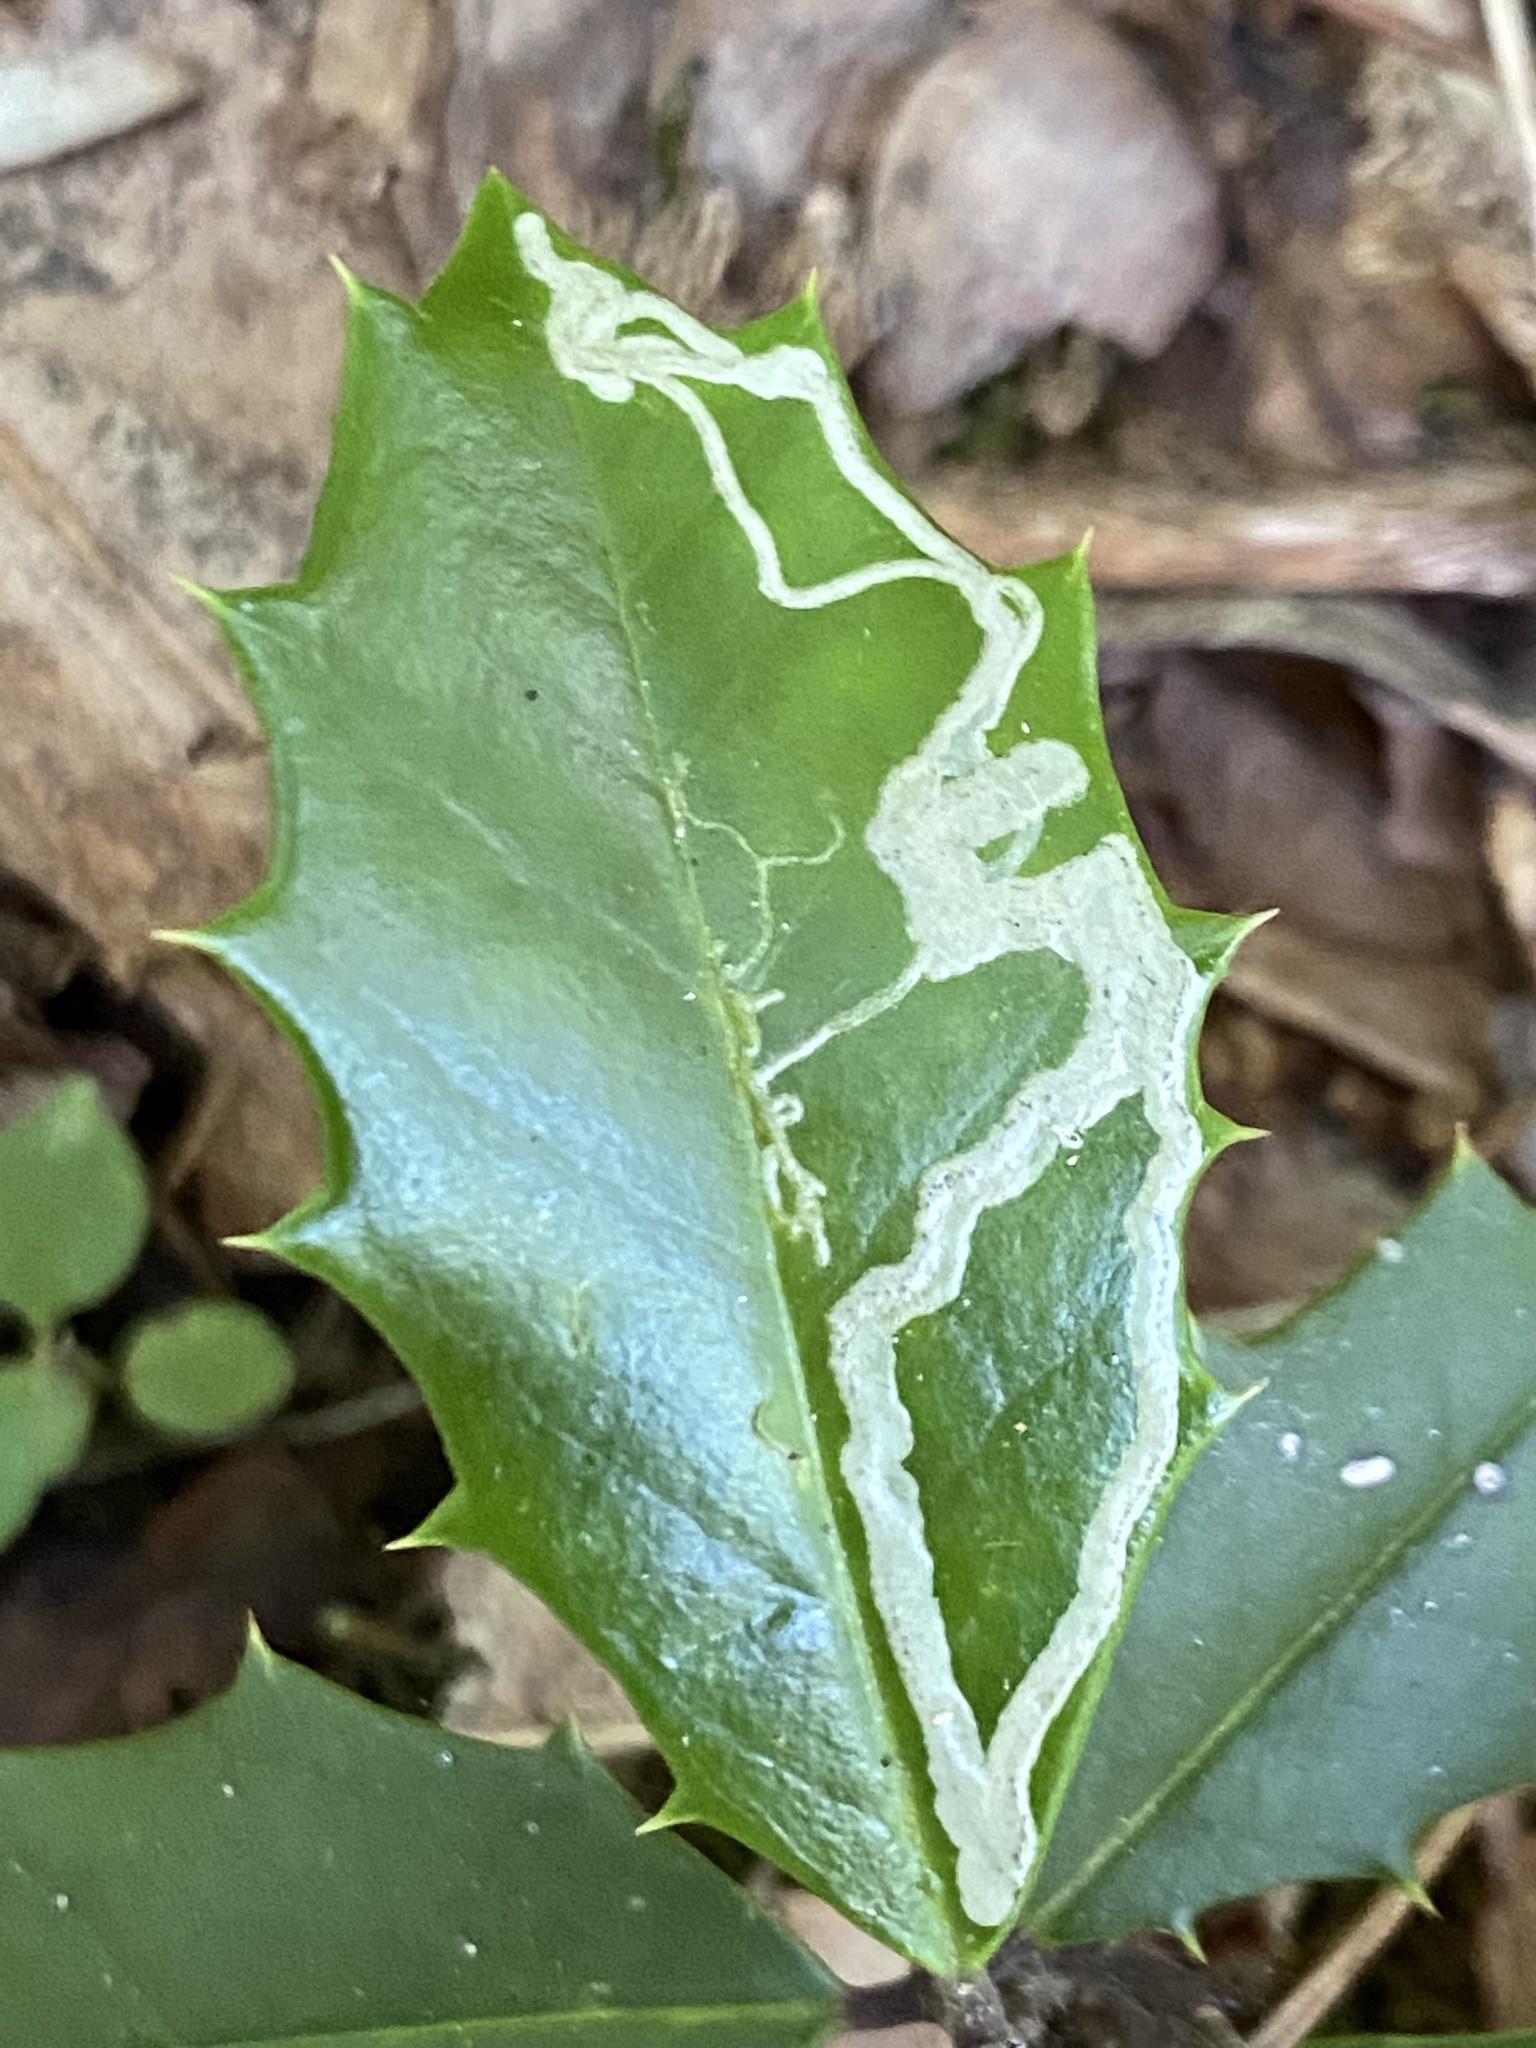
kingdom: Animalia
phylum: Arthropoda
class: Insecta
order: Diptera
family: Agromyzidae
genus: Phytomyza
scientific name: Phytomyza opacae
